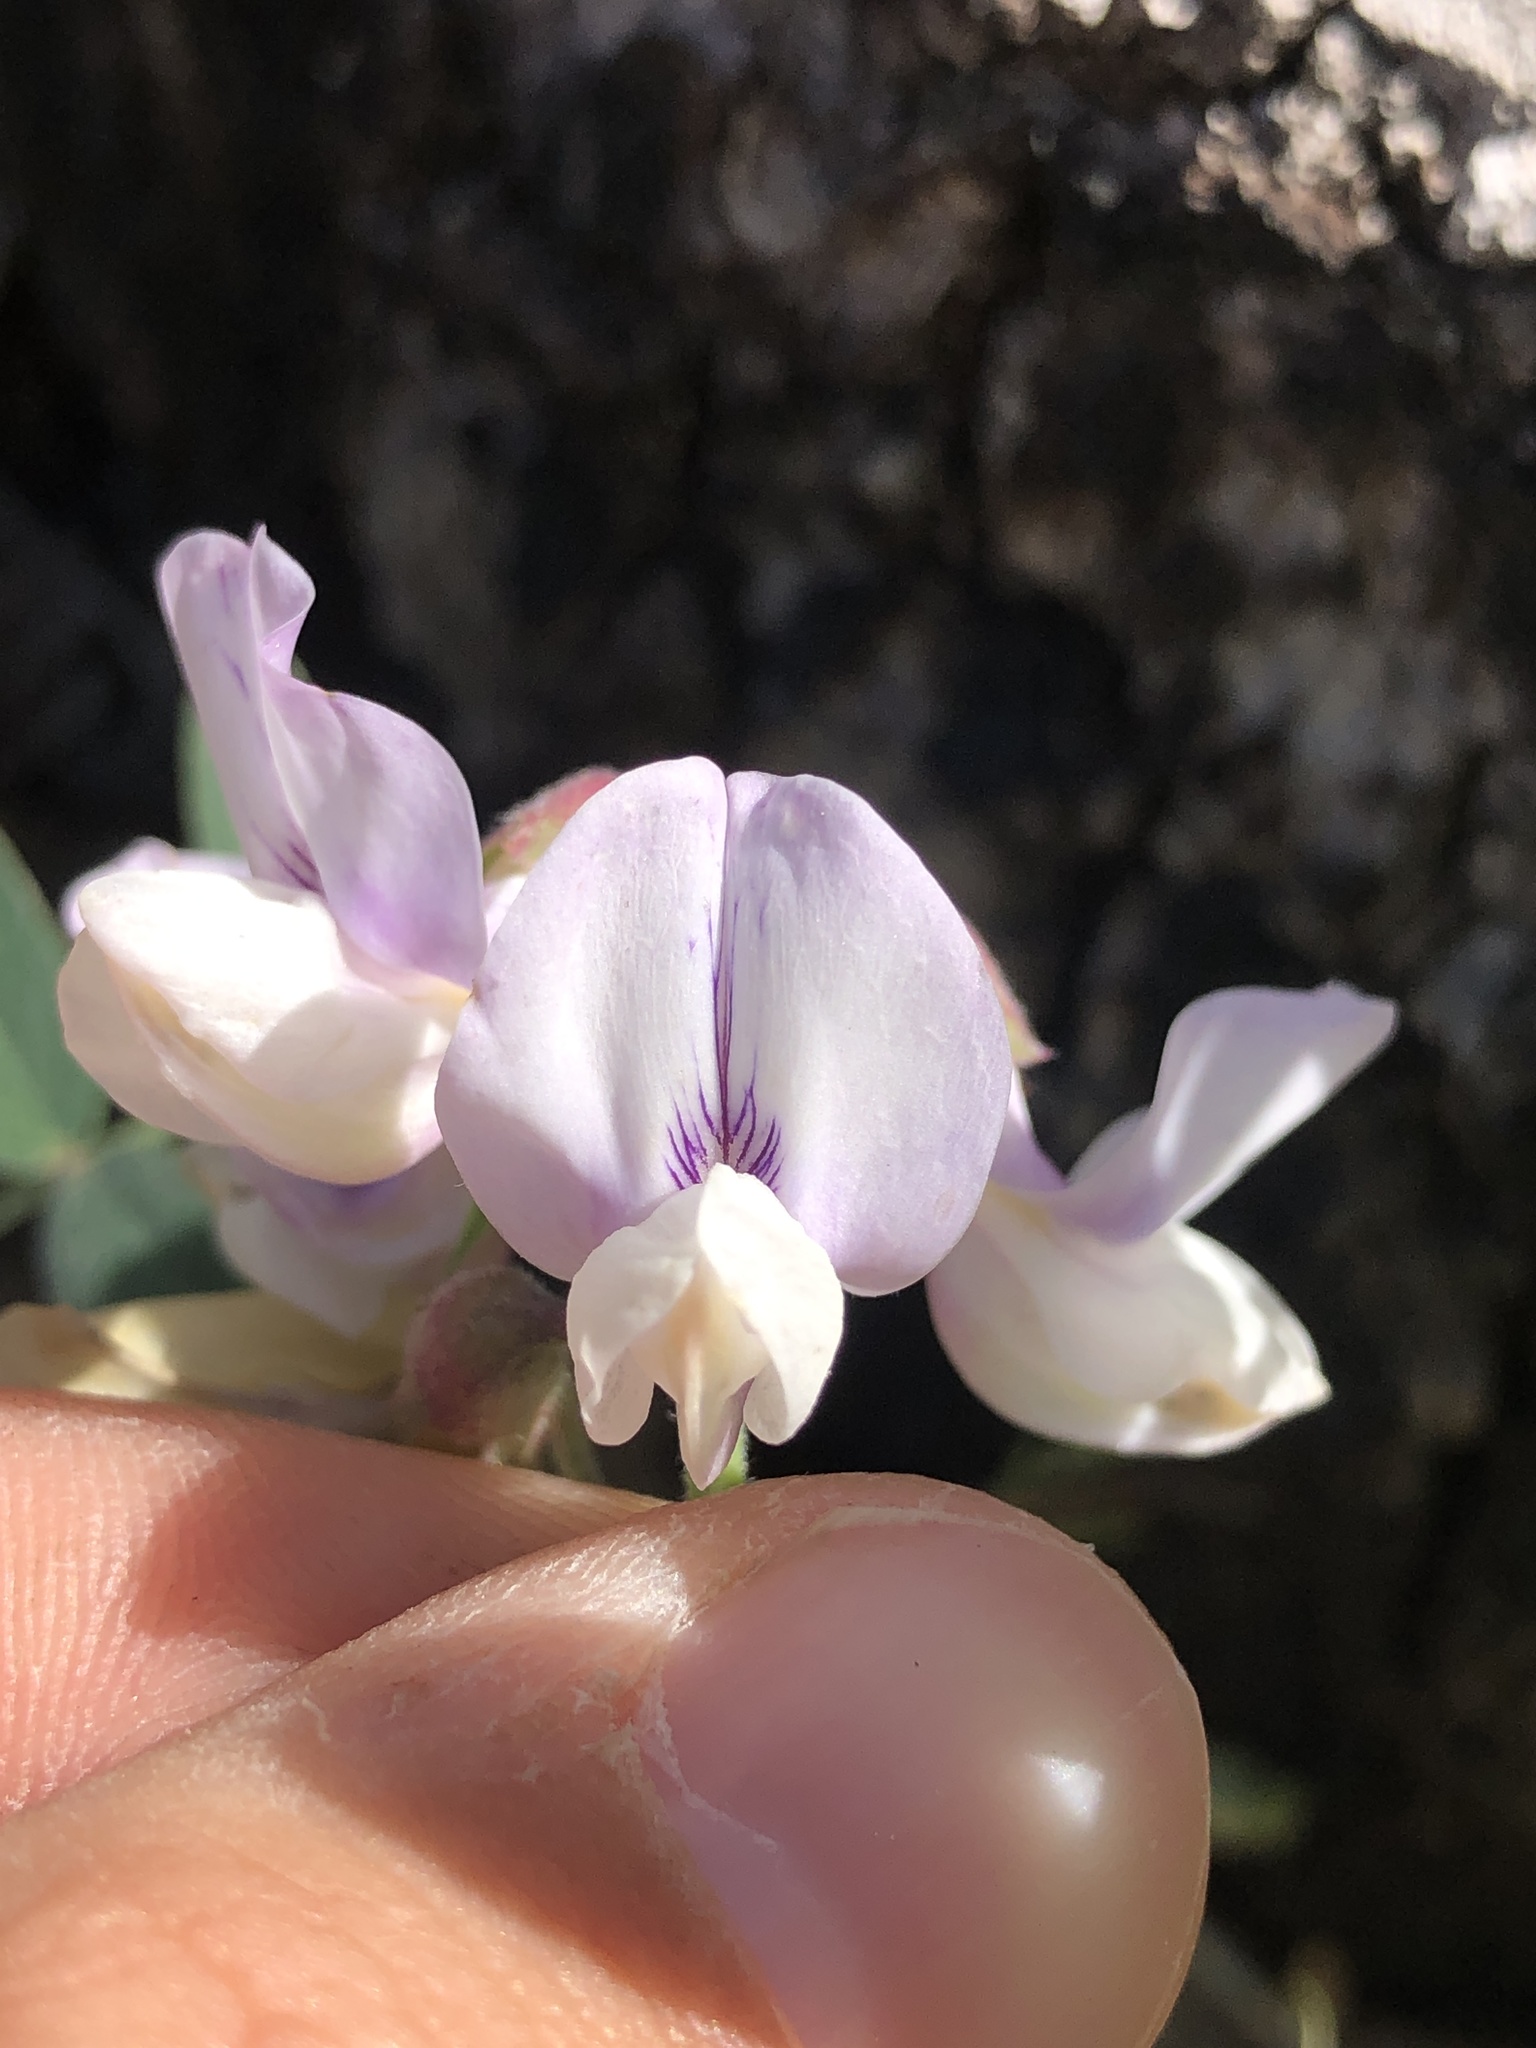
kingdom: Plantae
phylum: Tracheophyta
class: Magnoliopsida
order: Fabales
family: Fabaceae
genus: Lathyrus
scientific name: Lathyrus vestitus
